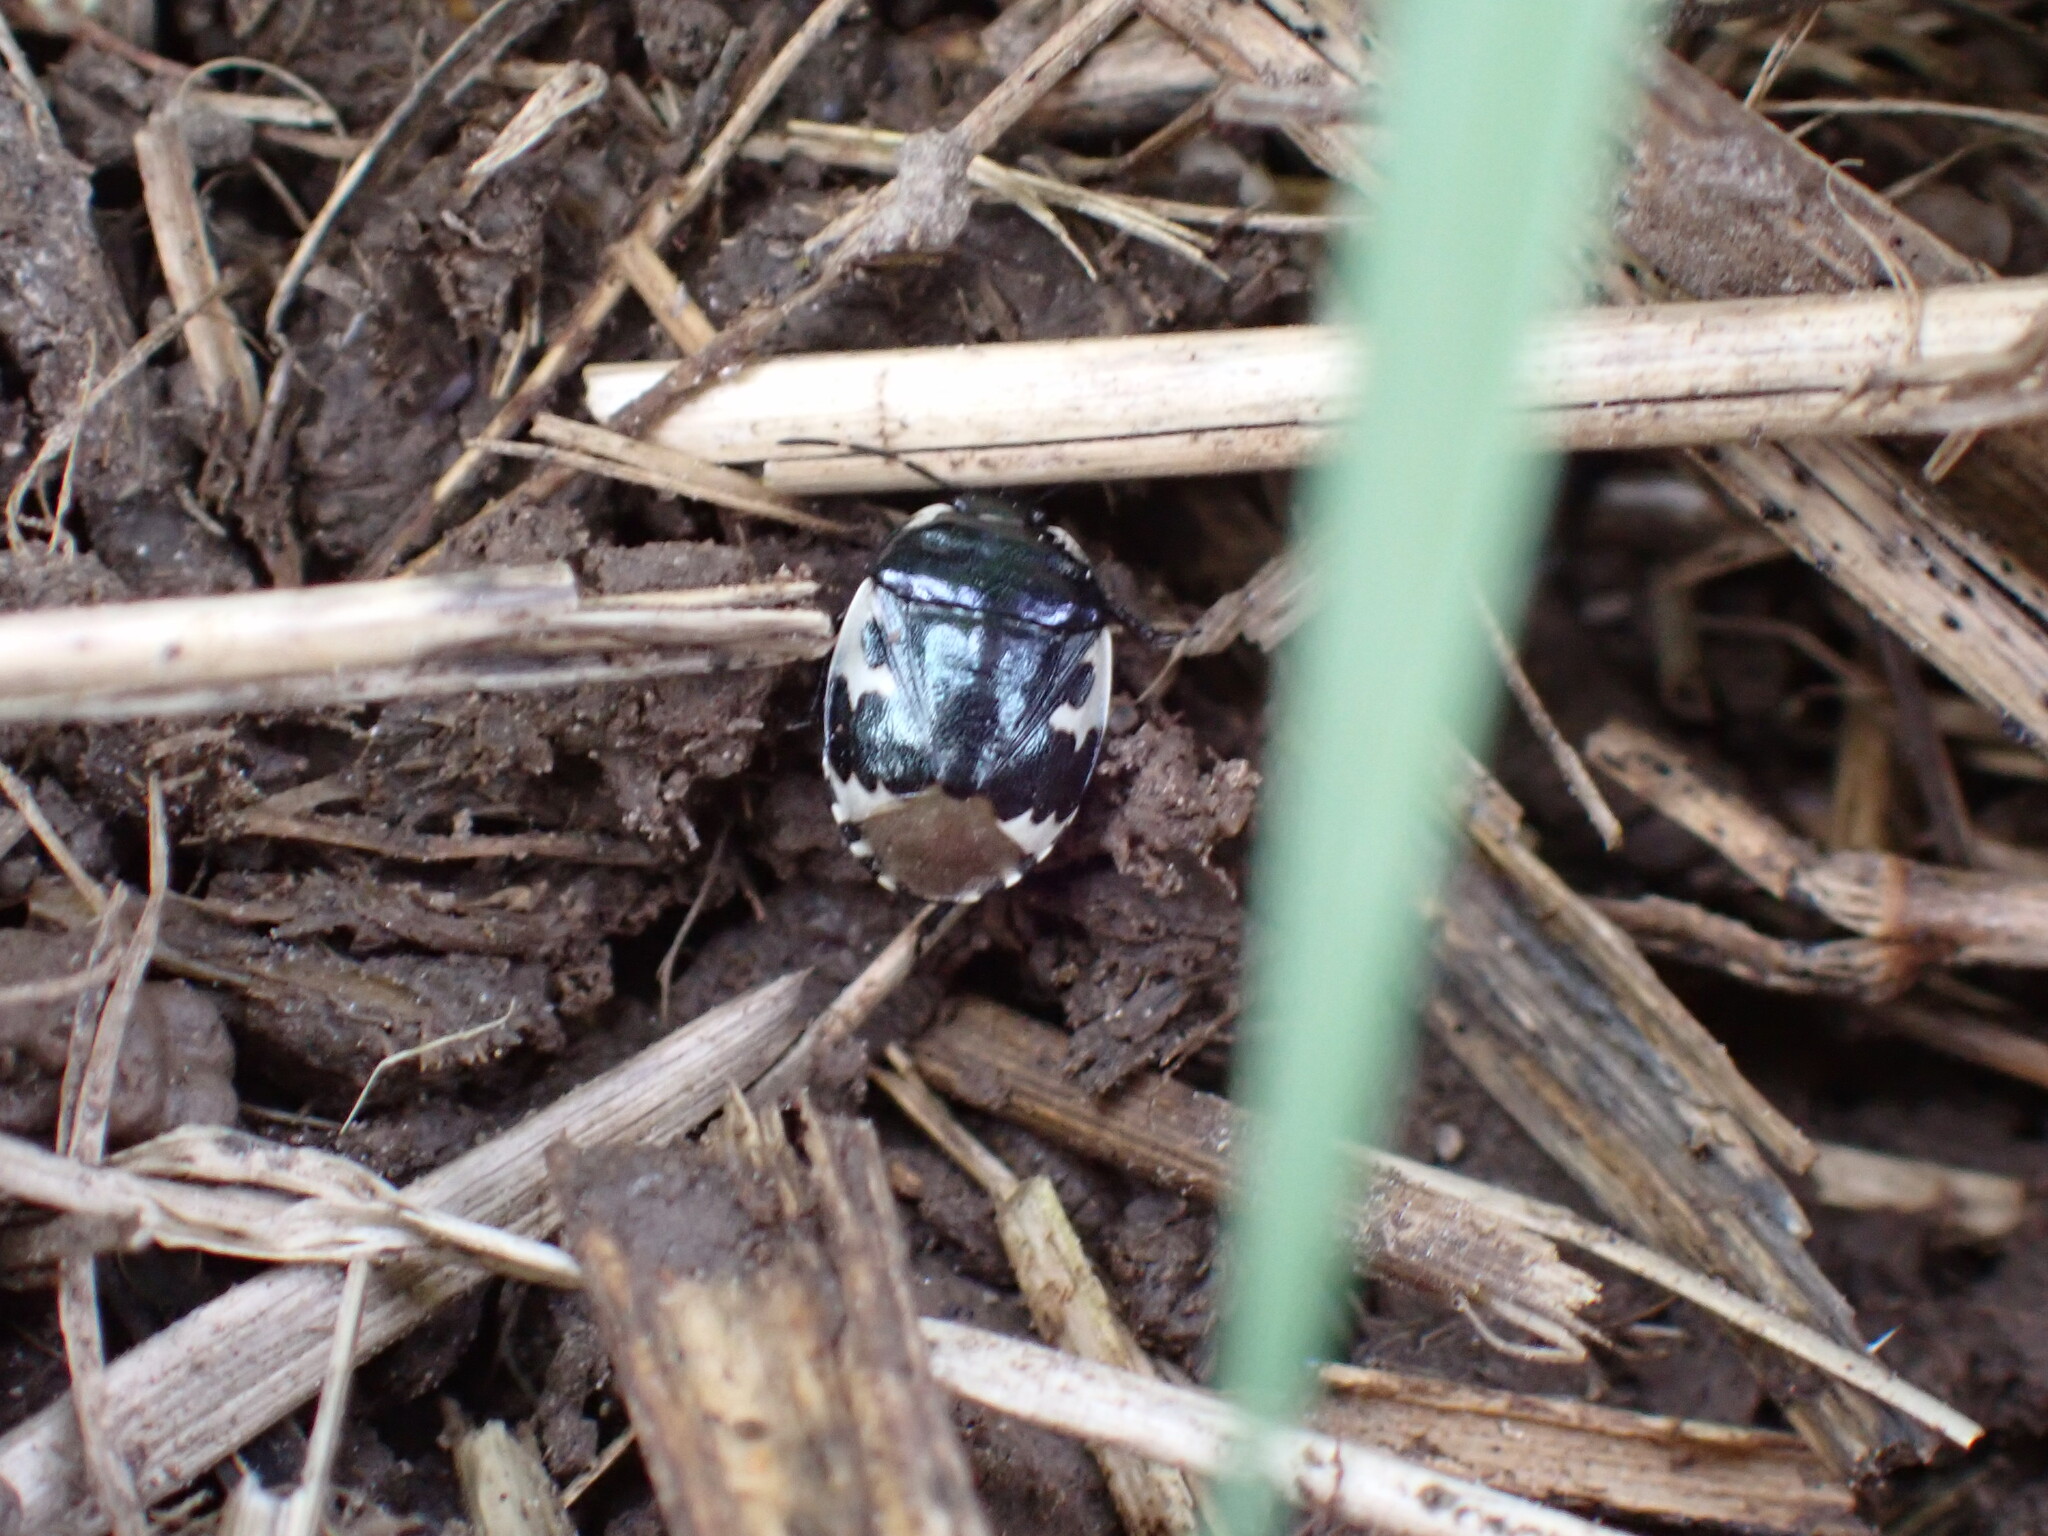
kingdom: Animalia
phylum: Arthropoda
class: Insecta
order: Hemiptera
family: Cydnidae
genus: Tritomegas
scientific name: Tritomegas bicolor
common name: Pied shieldbug
